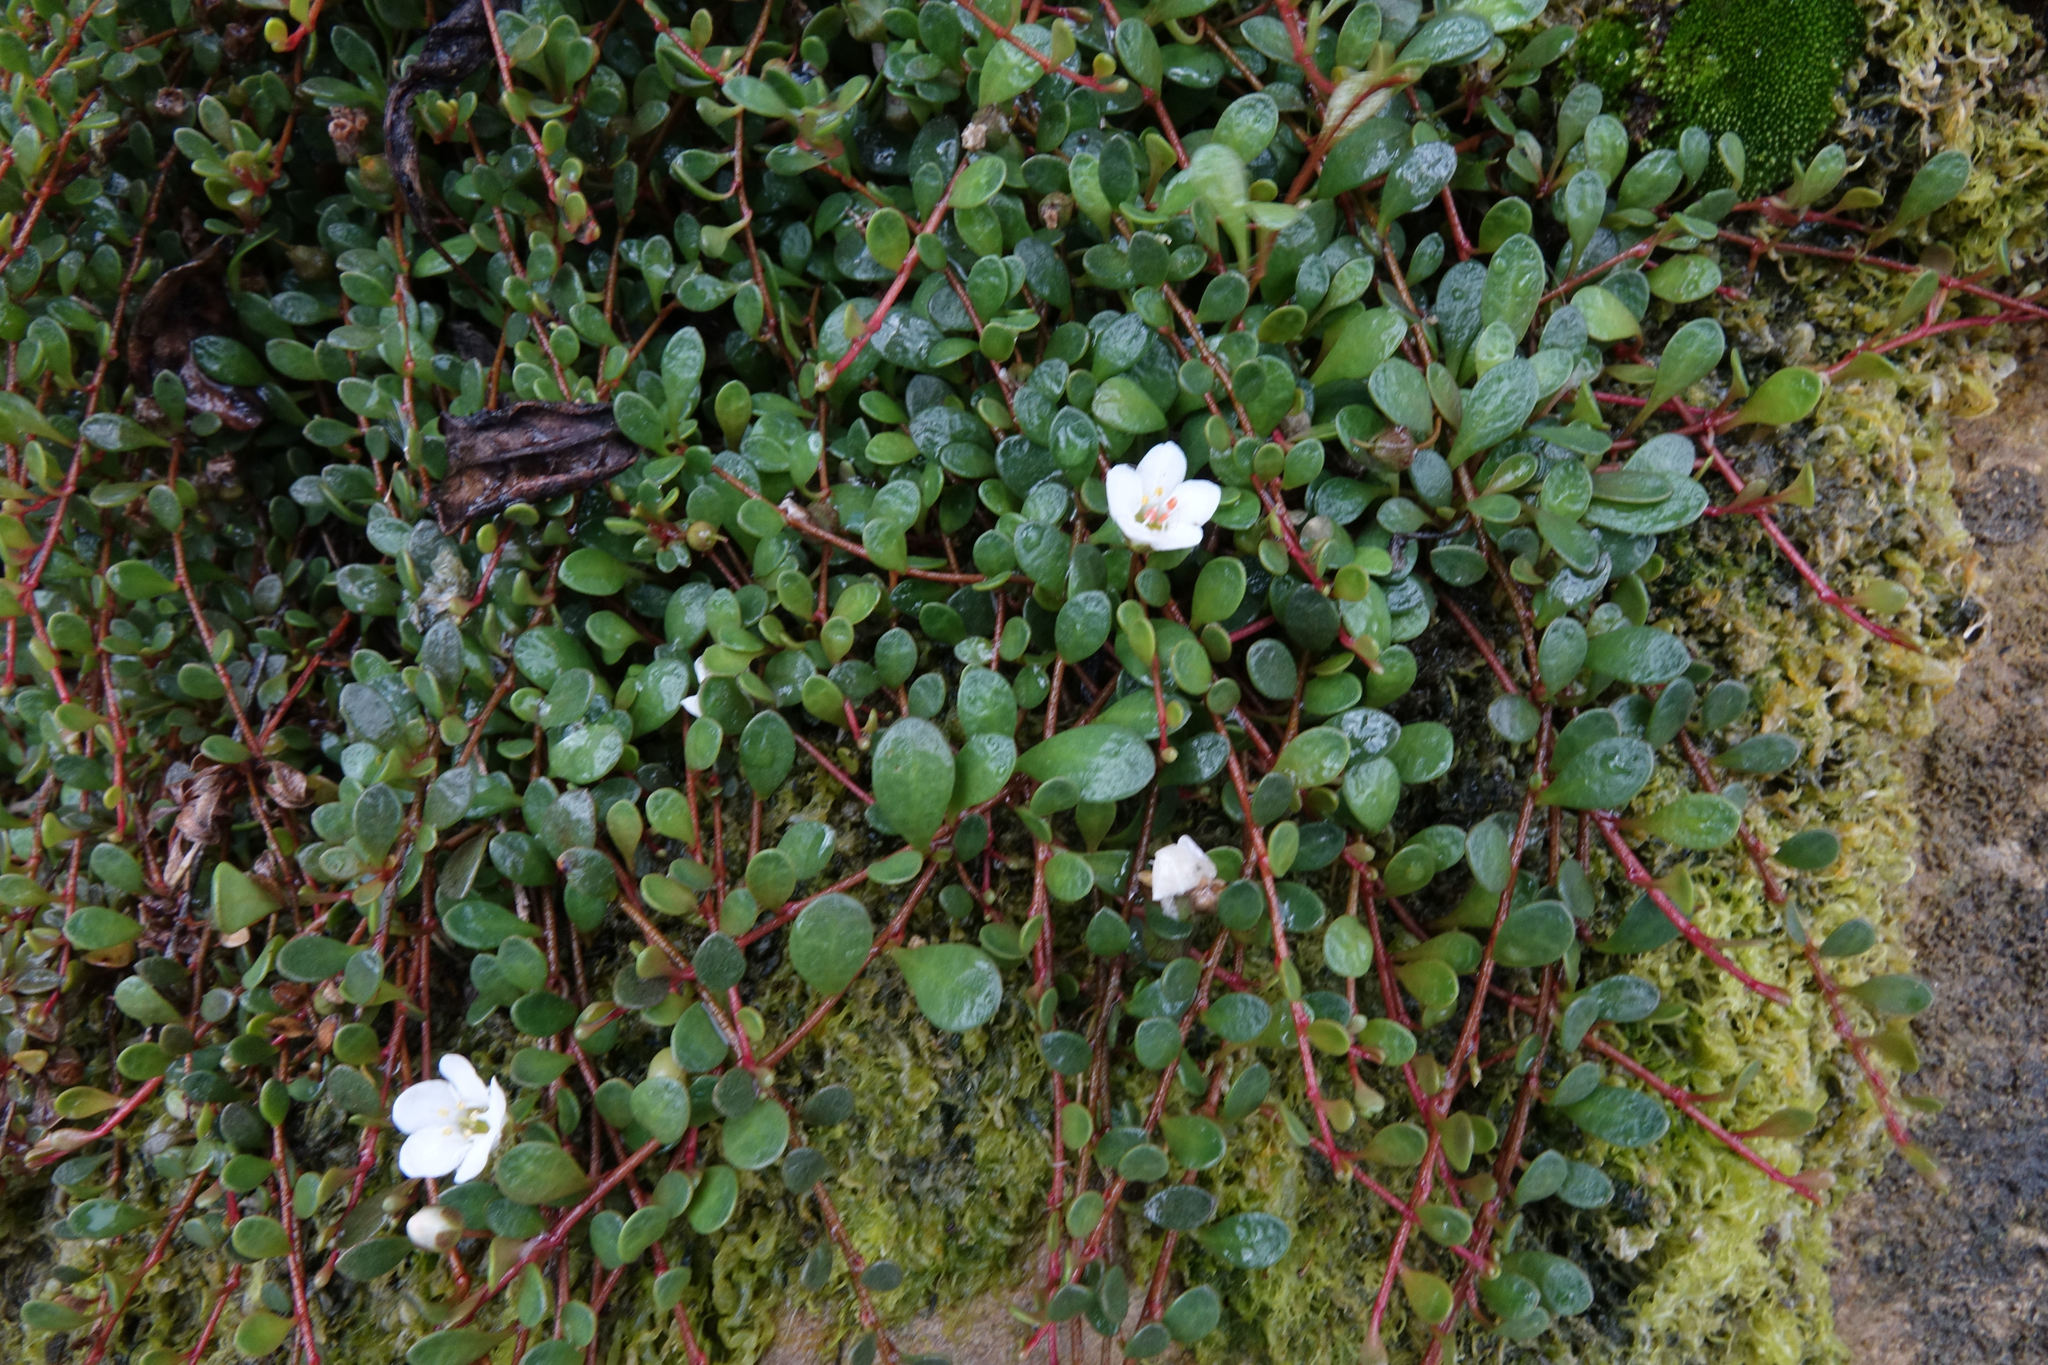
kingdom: Plantae
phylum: Tracheophyta
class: Magnoliopsida
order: Ericales
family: Primulaceae
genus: Samolus
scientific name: Samolus repens
